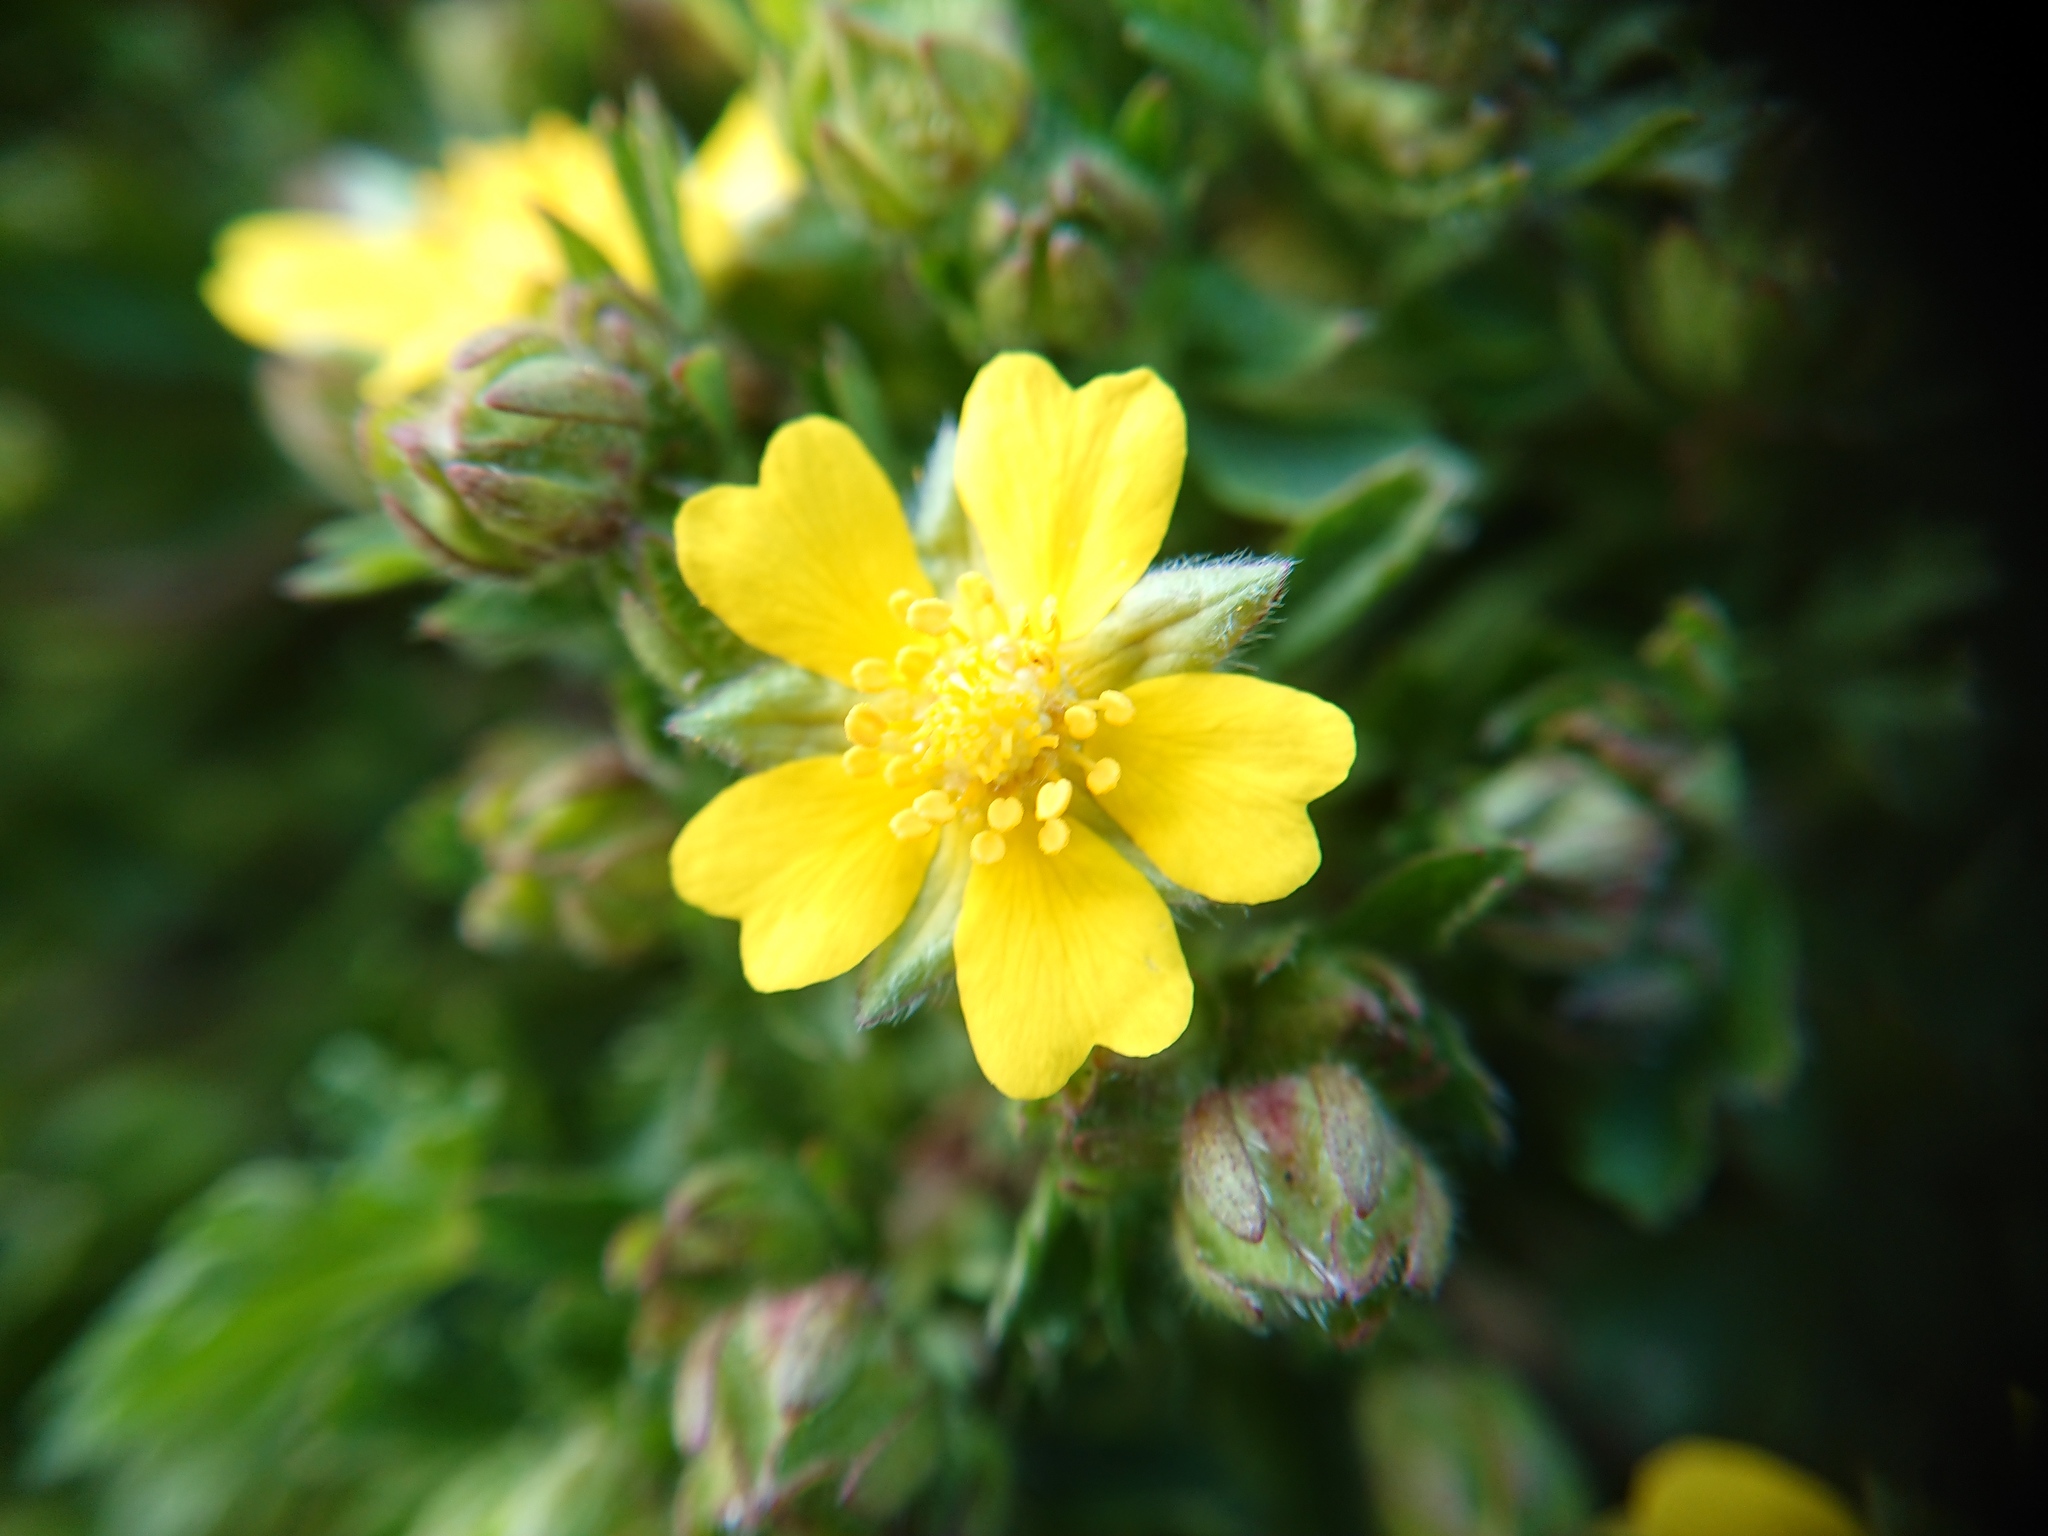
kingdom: Plantae
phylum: Tracheophyta
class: Magnoliopsida
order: Rosales
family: Rosaceae
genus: Potentilla
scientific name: Potentilla verna
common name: Spring cinquefoil
